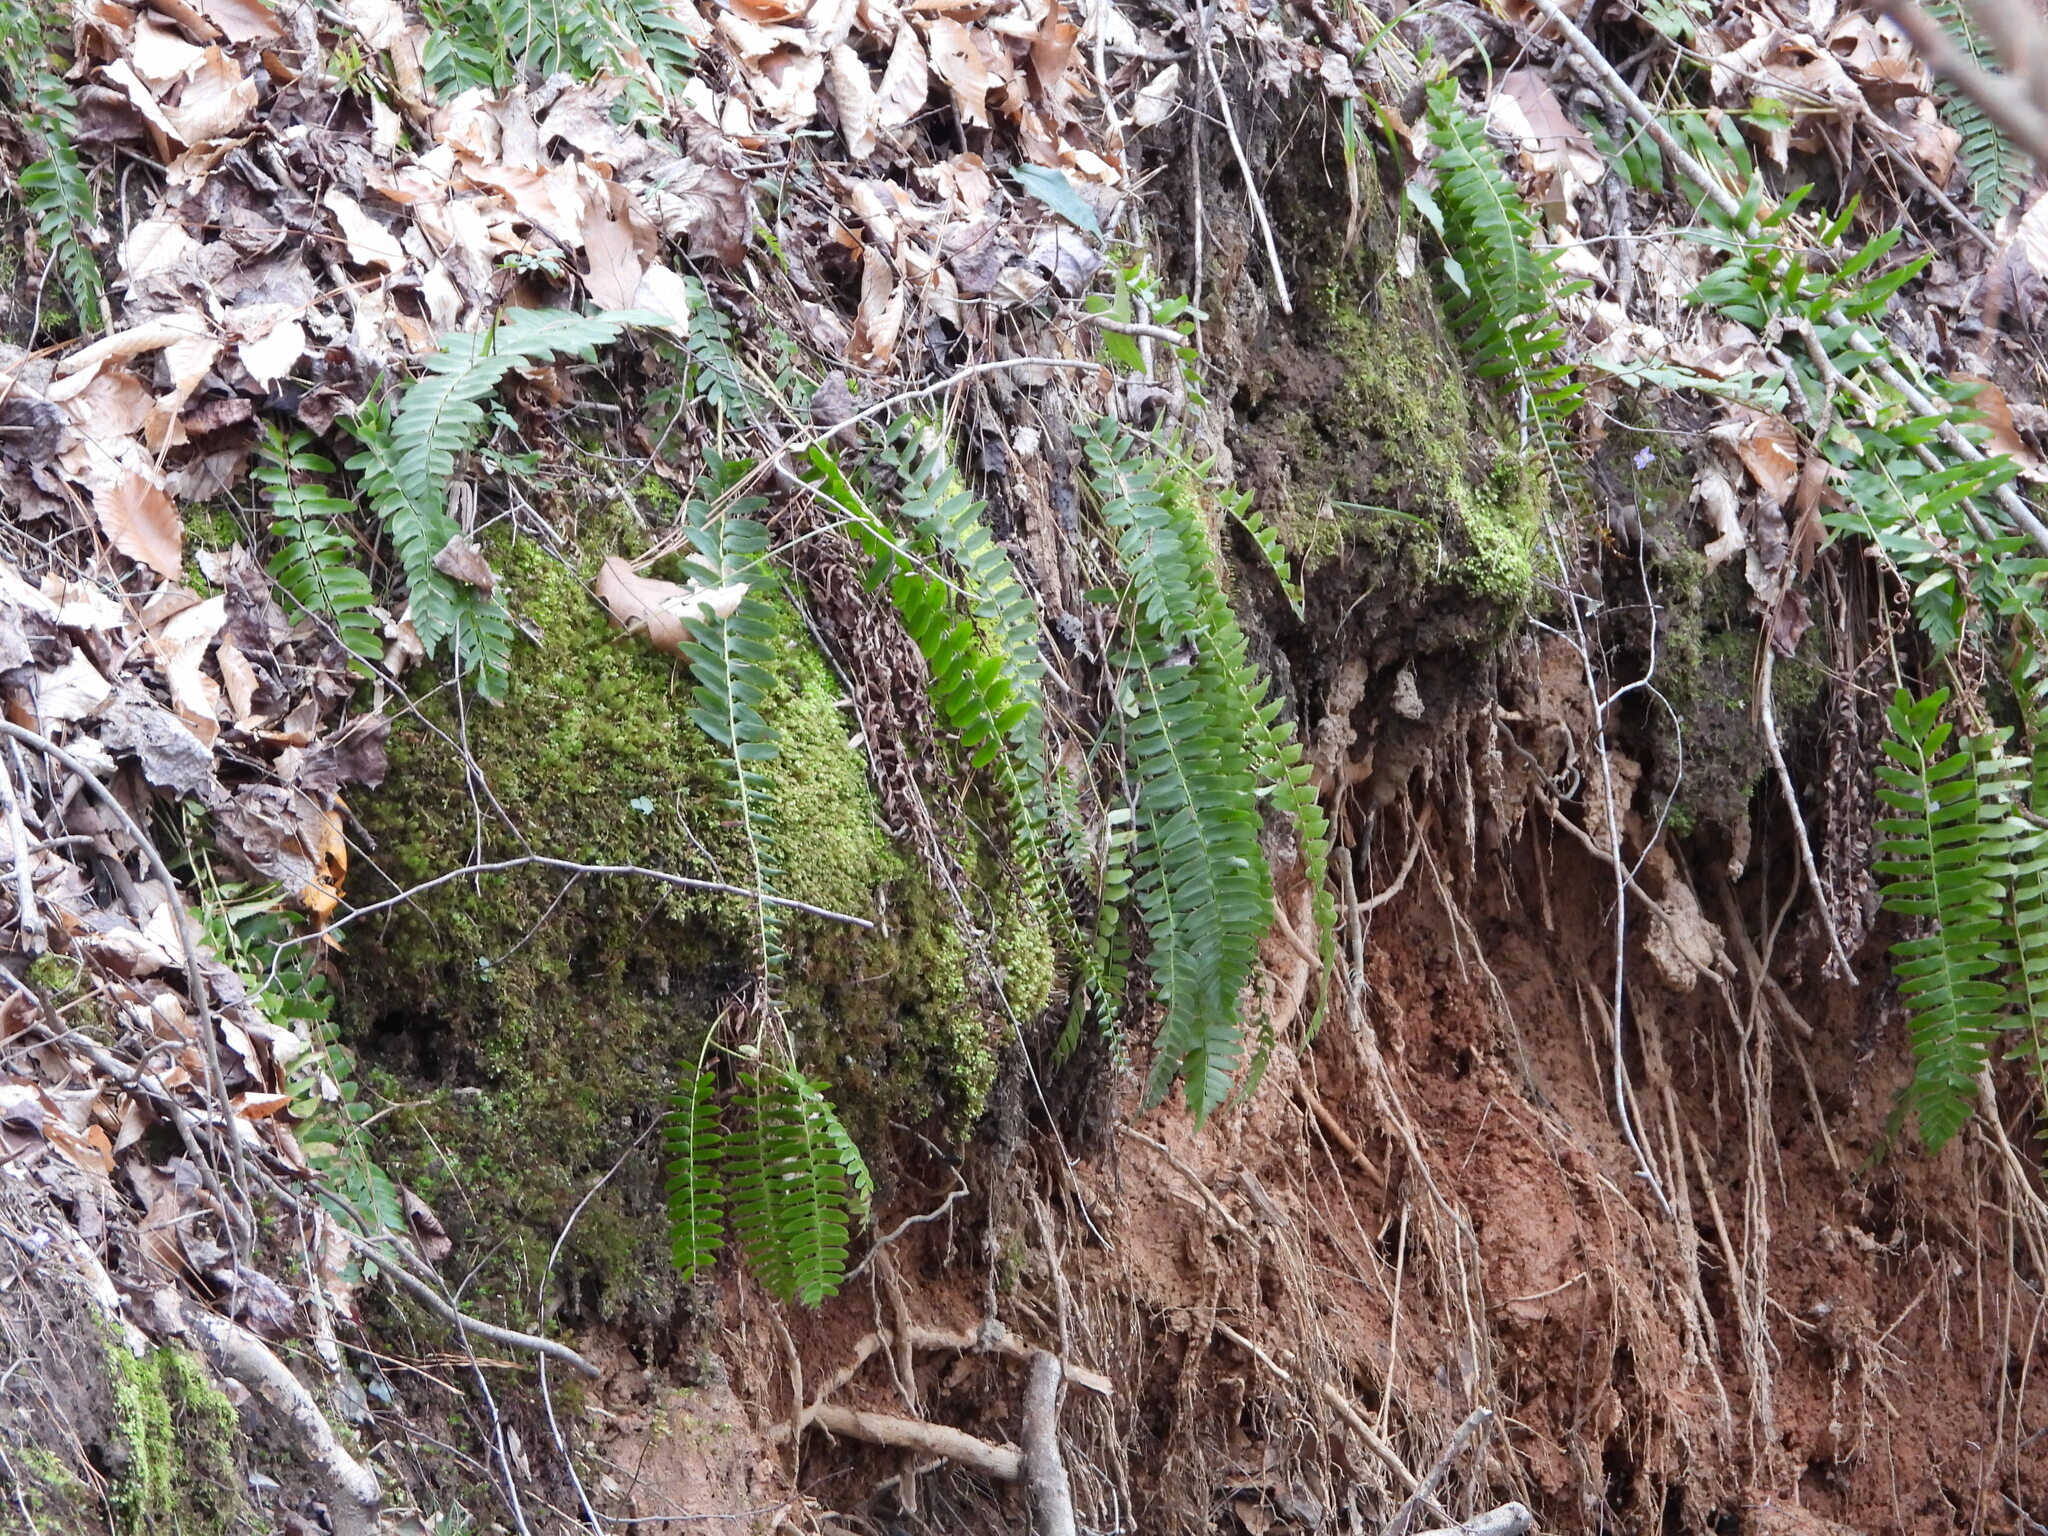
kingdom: Plantae
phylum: Tracheophyta
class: Polypodiopsida
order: Polypodiales
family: Dryopteridaceae
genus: Polystichum
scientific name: Polystichum acrostichoides
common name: Christmas fern
